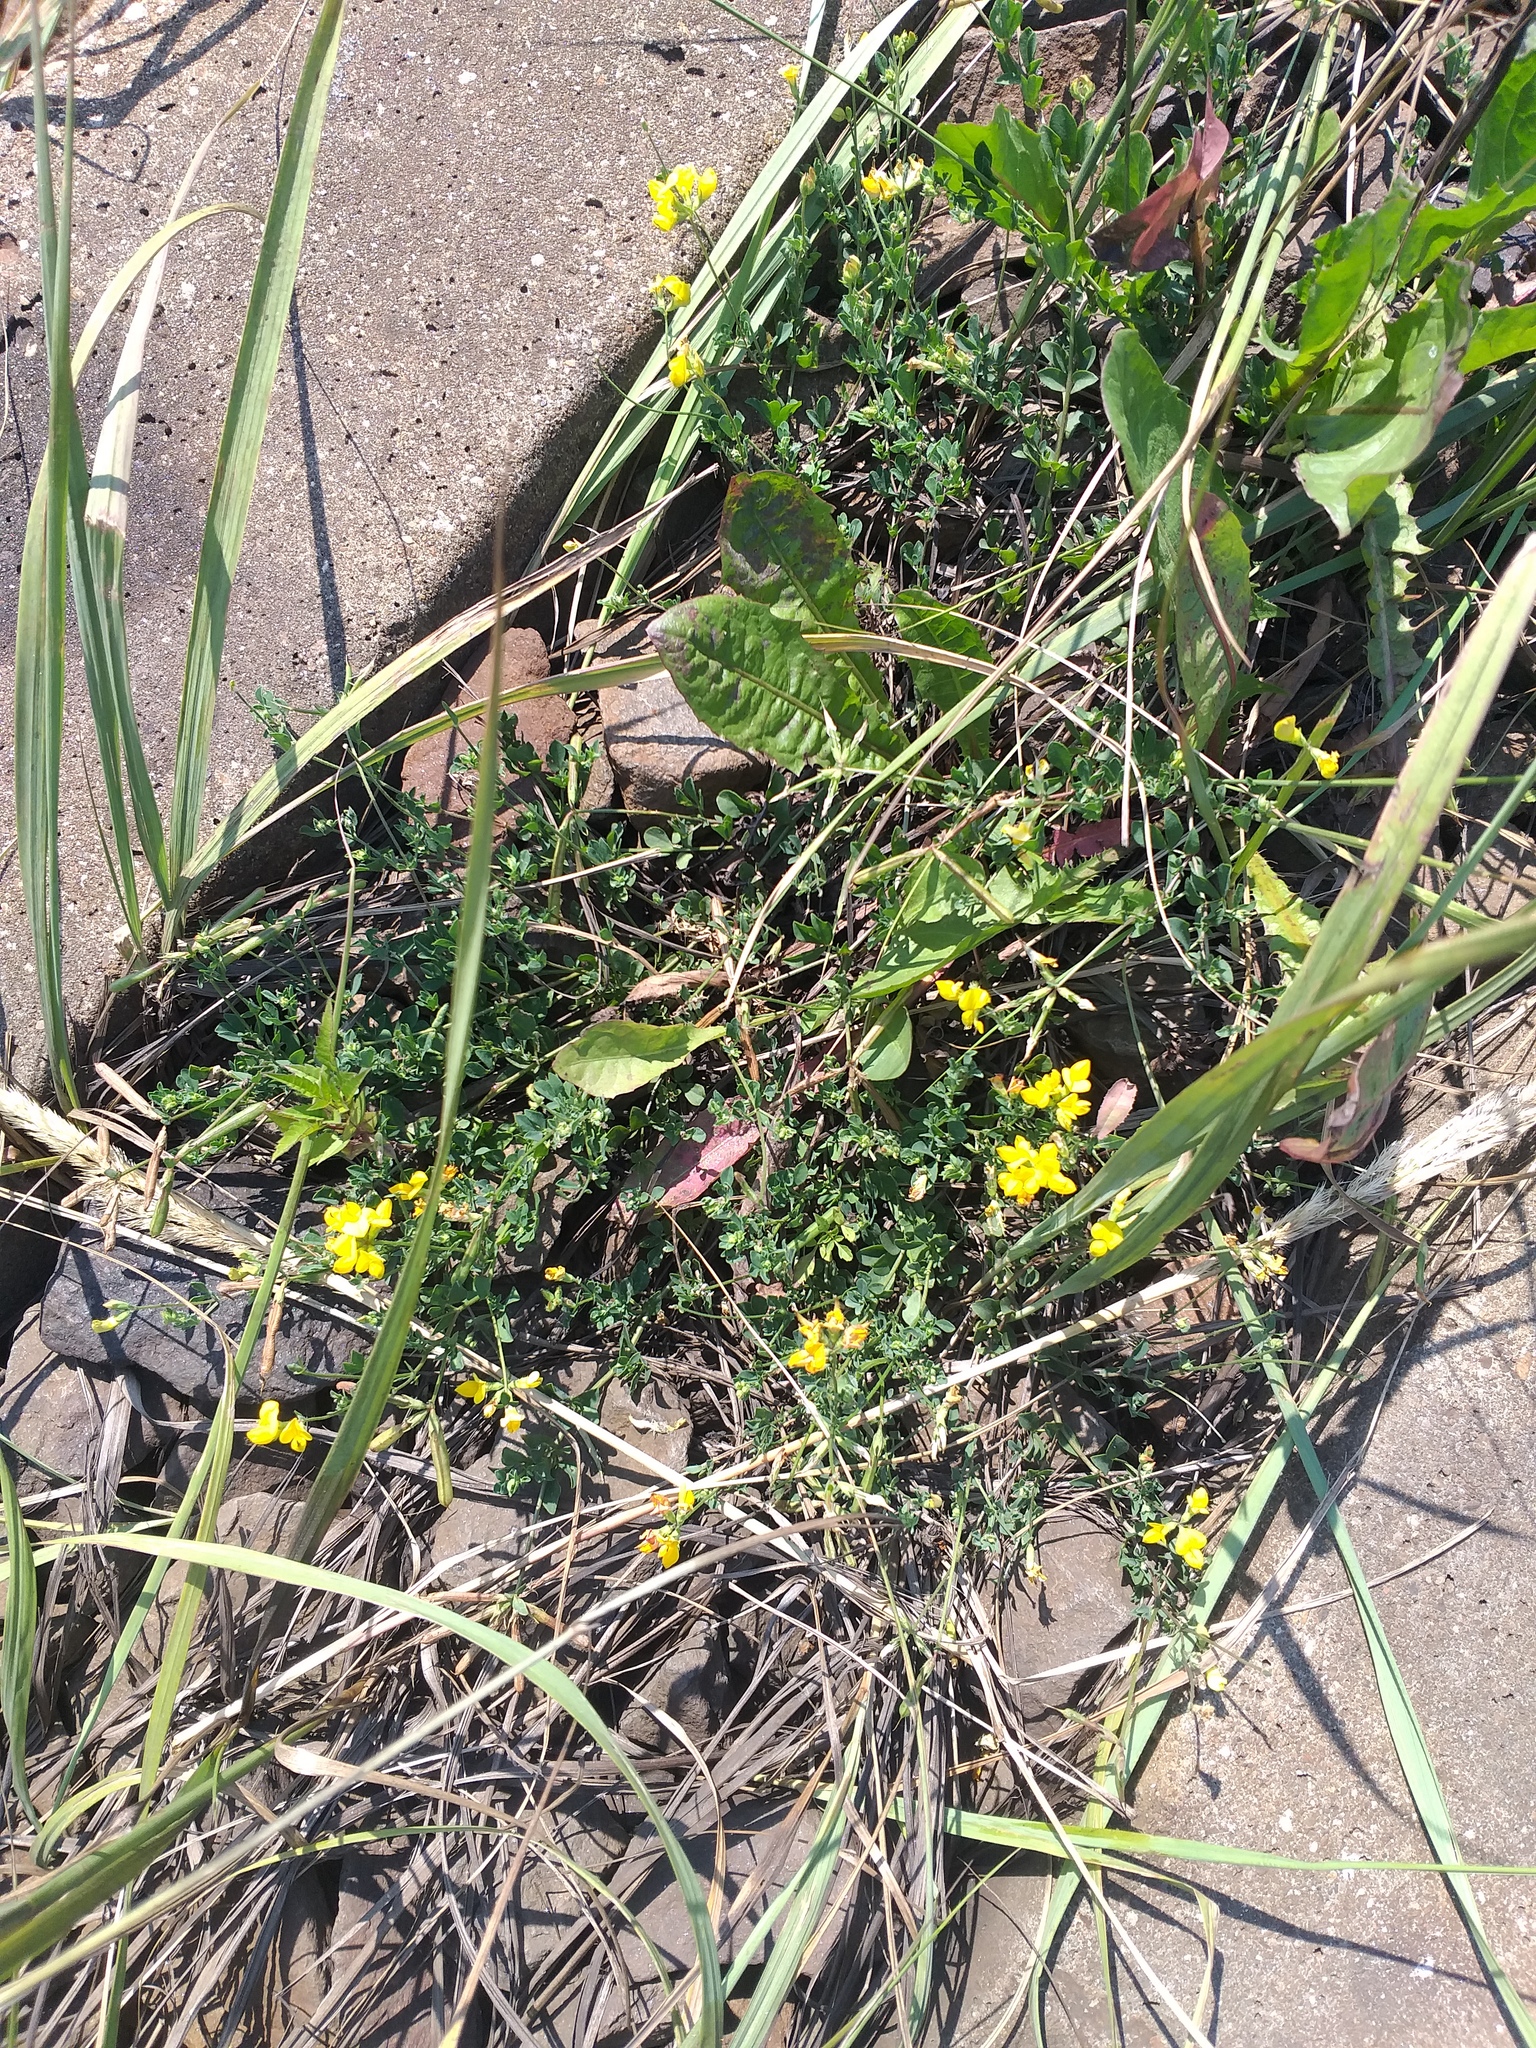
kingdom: Plantae
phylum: Tracheophyta
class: Magnoliopsida
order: Fabales
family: Fabaceae
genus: Lotus
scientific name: Lotus corniculatus
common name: Common bird's-foot-trefoil
